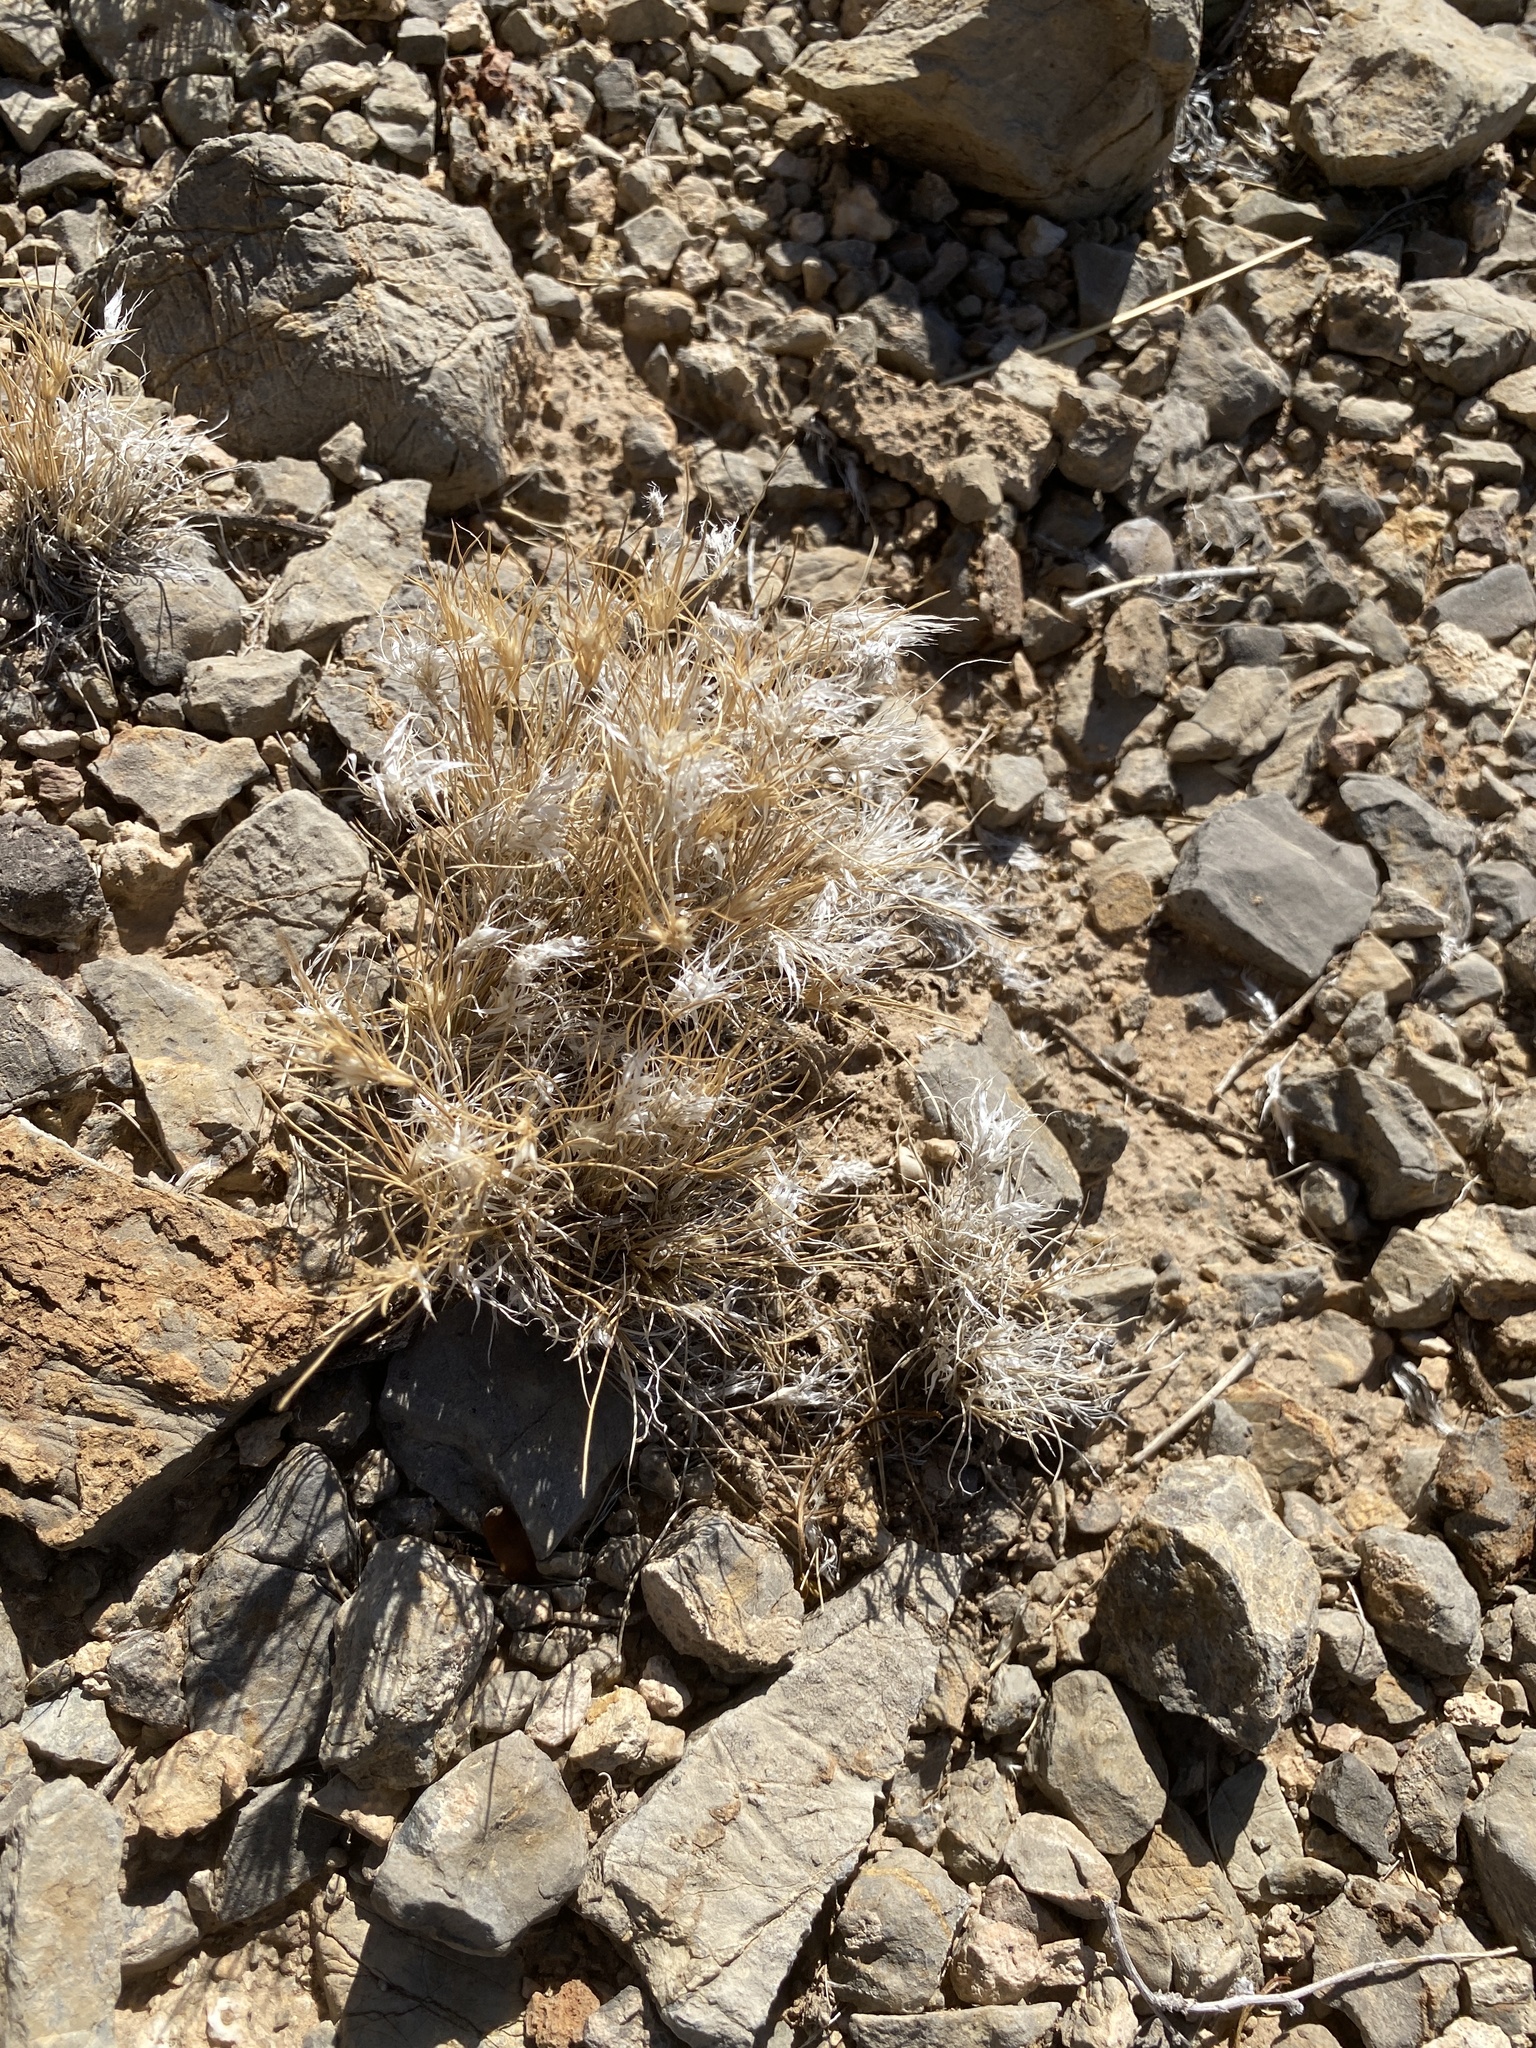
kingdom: Plantae
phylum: Tracheophyta
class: Liliopsida
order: Poales
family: Poaceae
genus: Dasyochloa
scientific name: Dasyochloa pulchella
